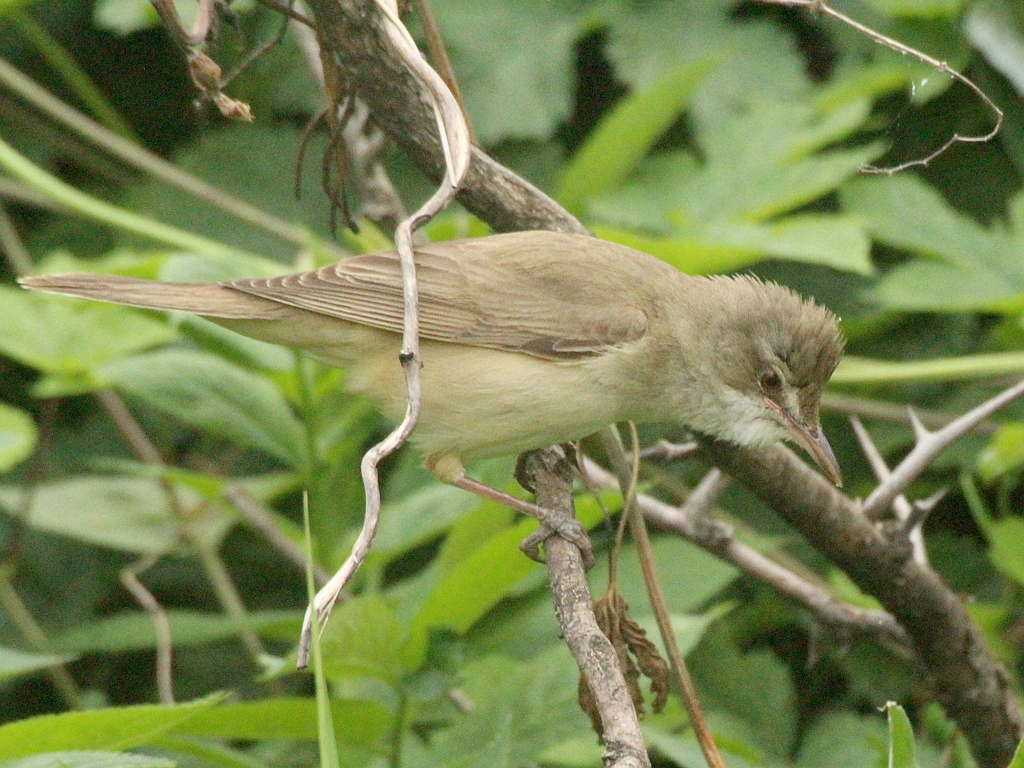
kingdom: Animalia
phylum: Chordata
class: Aves
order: Passeriformes
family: Acrocephalidae
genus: Acrocephalus
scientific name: Acrocephalus arundinaceus
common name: Great reed warbler
